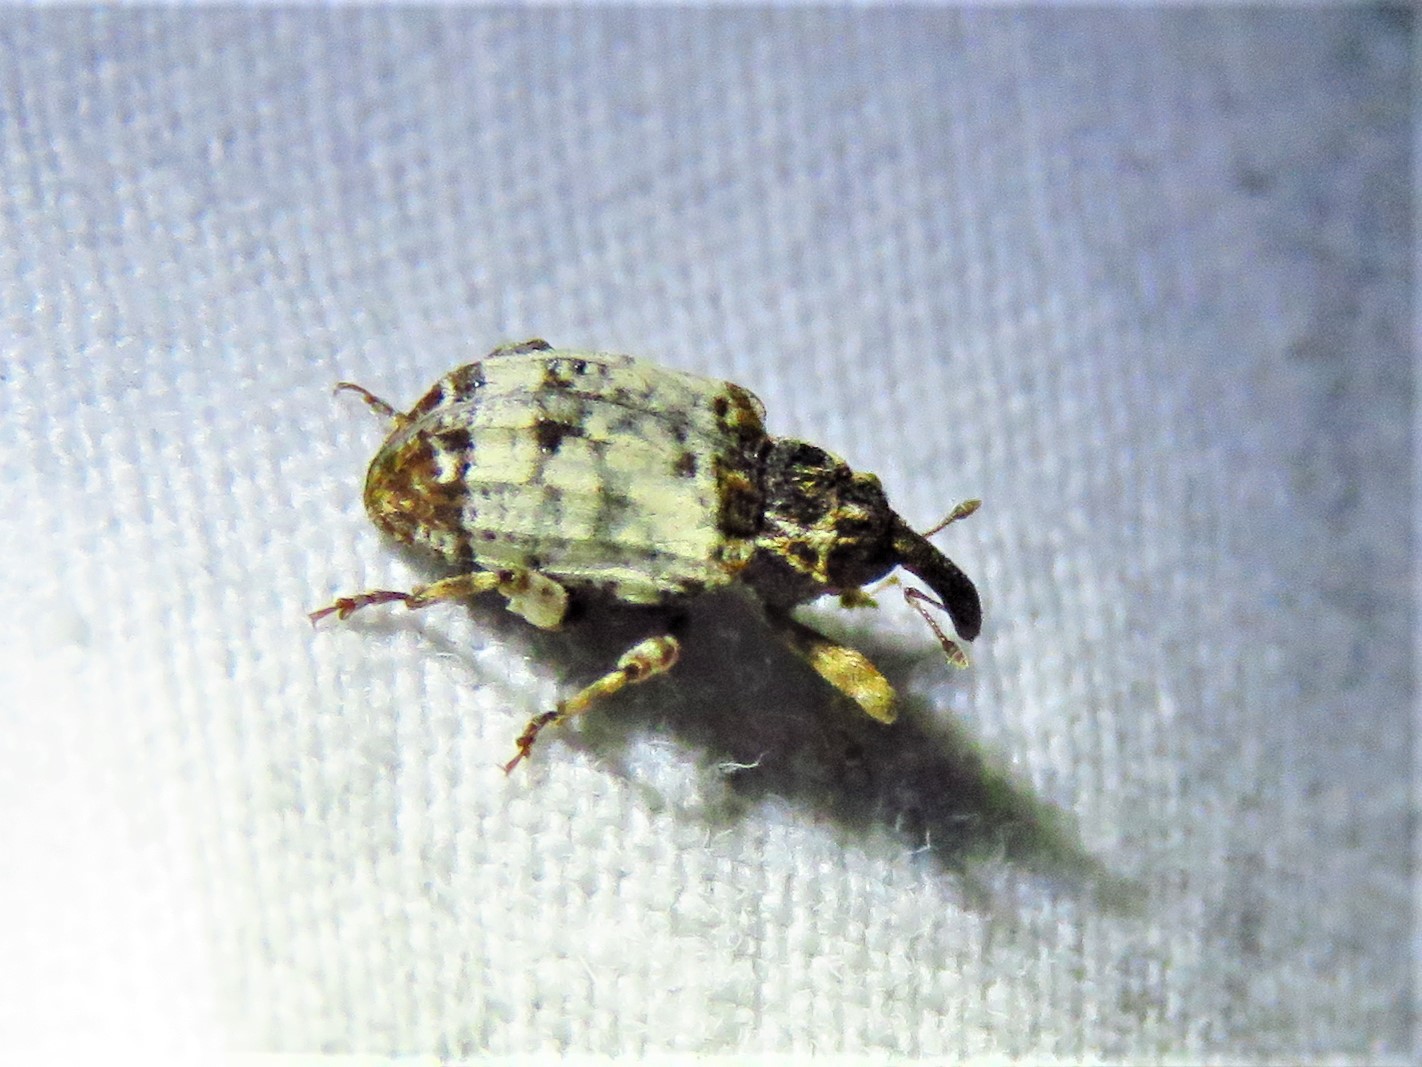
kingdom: Animalia
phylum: Arthropoda
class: Insecta
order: Coleoptera
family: Curculionidae
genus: Conotrachelus
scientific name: Conotrachelus leucophaeatus
